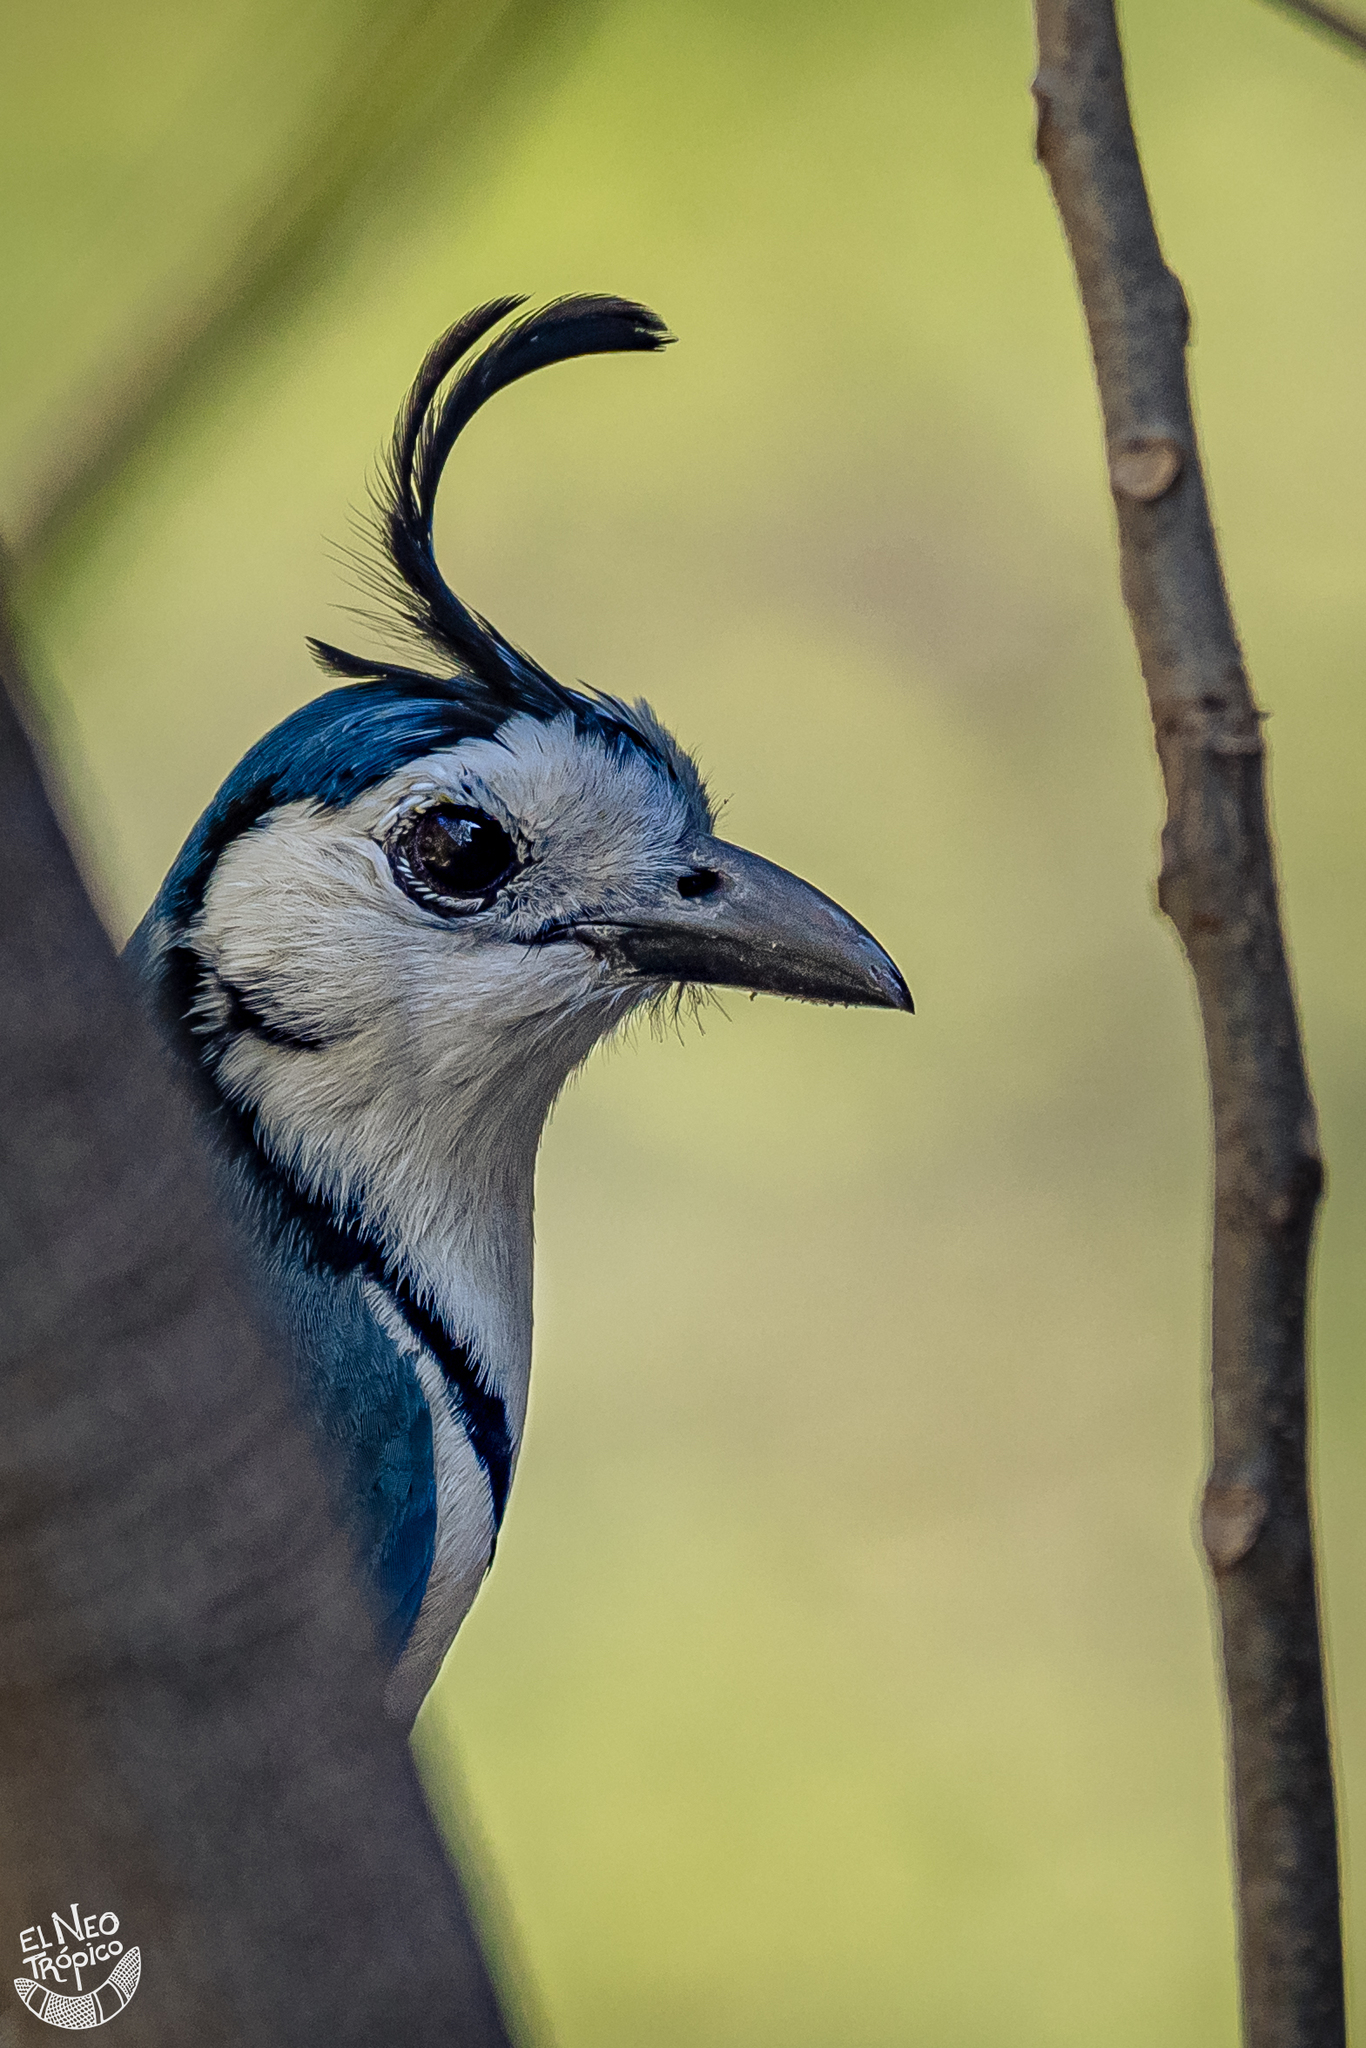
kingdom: Animalia
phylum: Chordata
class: Aves
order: Passeriformes
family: Corvidae
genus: Calocitta
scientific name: Calocitta formosa
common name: White-throated magpie-jay
